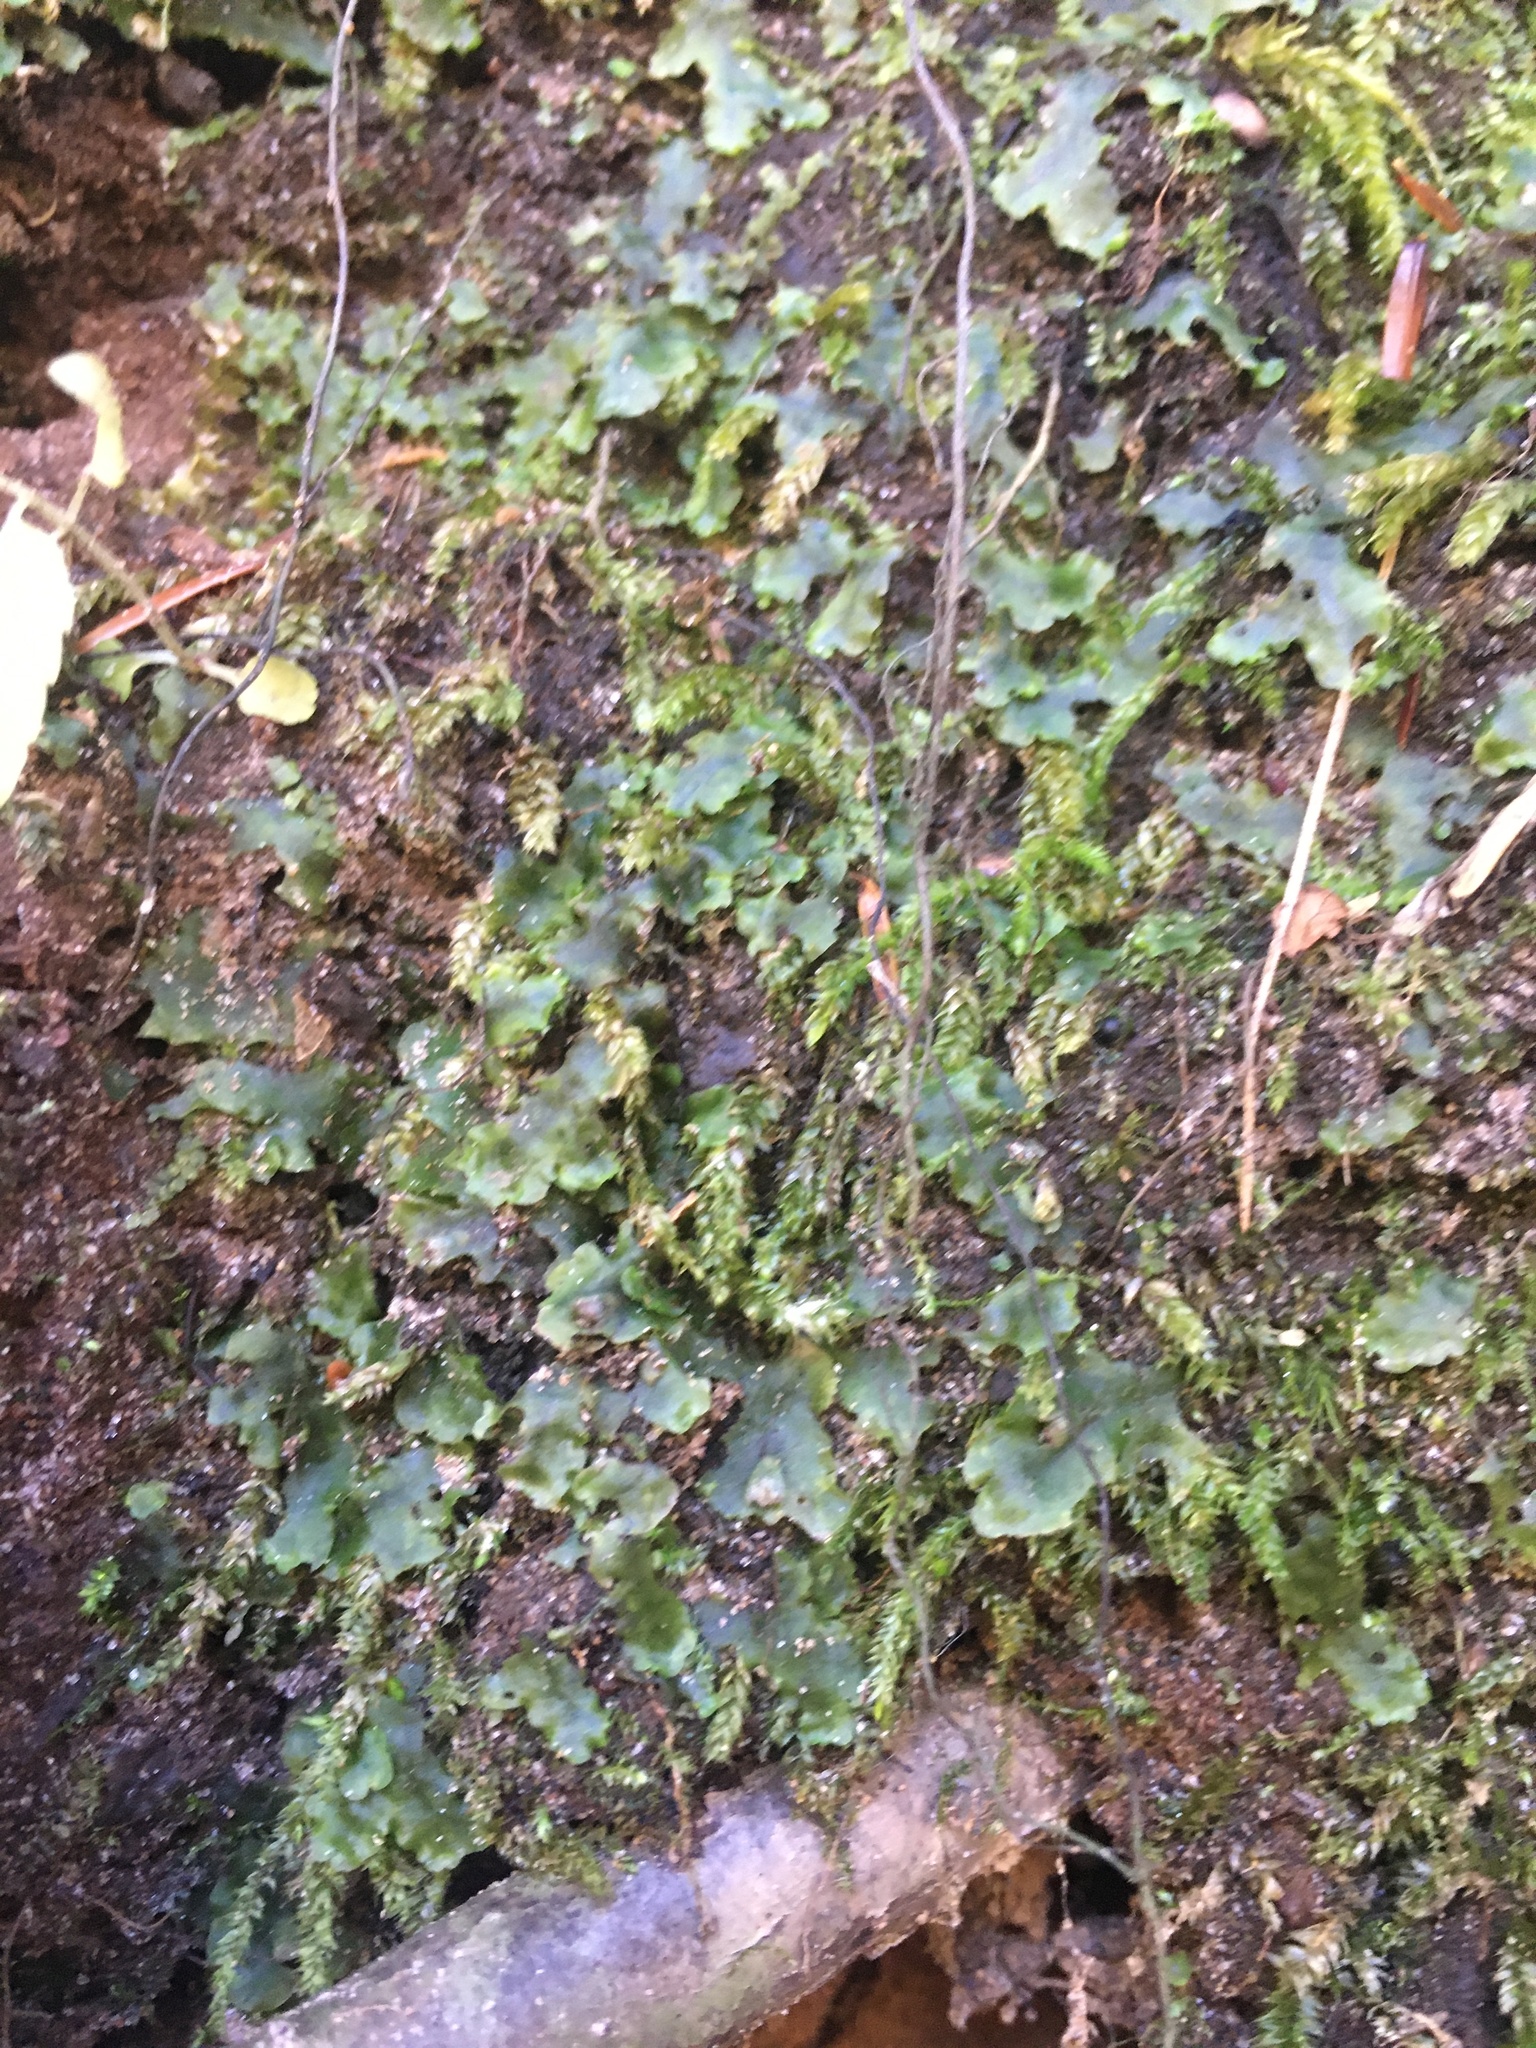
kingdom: Plantae
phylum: Marchantiophyta
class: Jungermanniopsida
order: Pelliales
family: Pelliaceae
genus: Pellia
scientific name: Pellia epiphylla
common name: Common pellia
